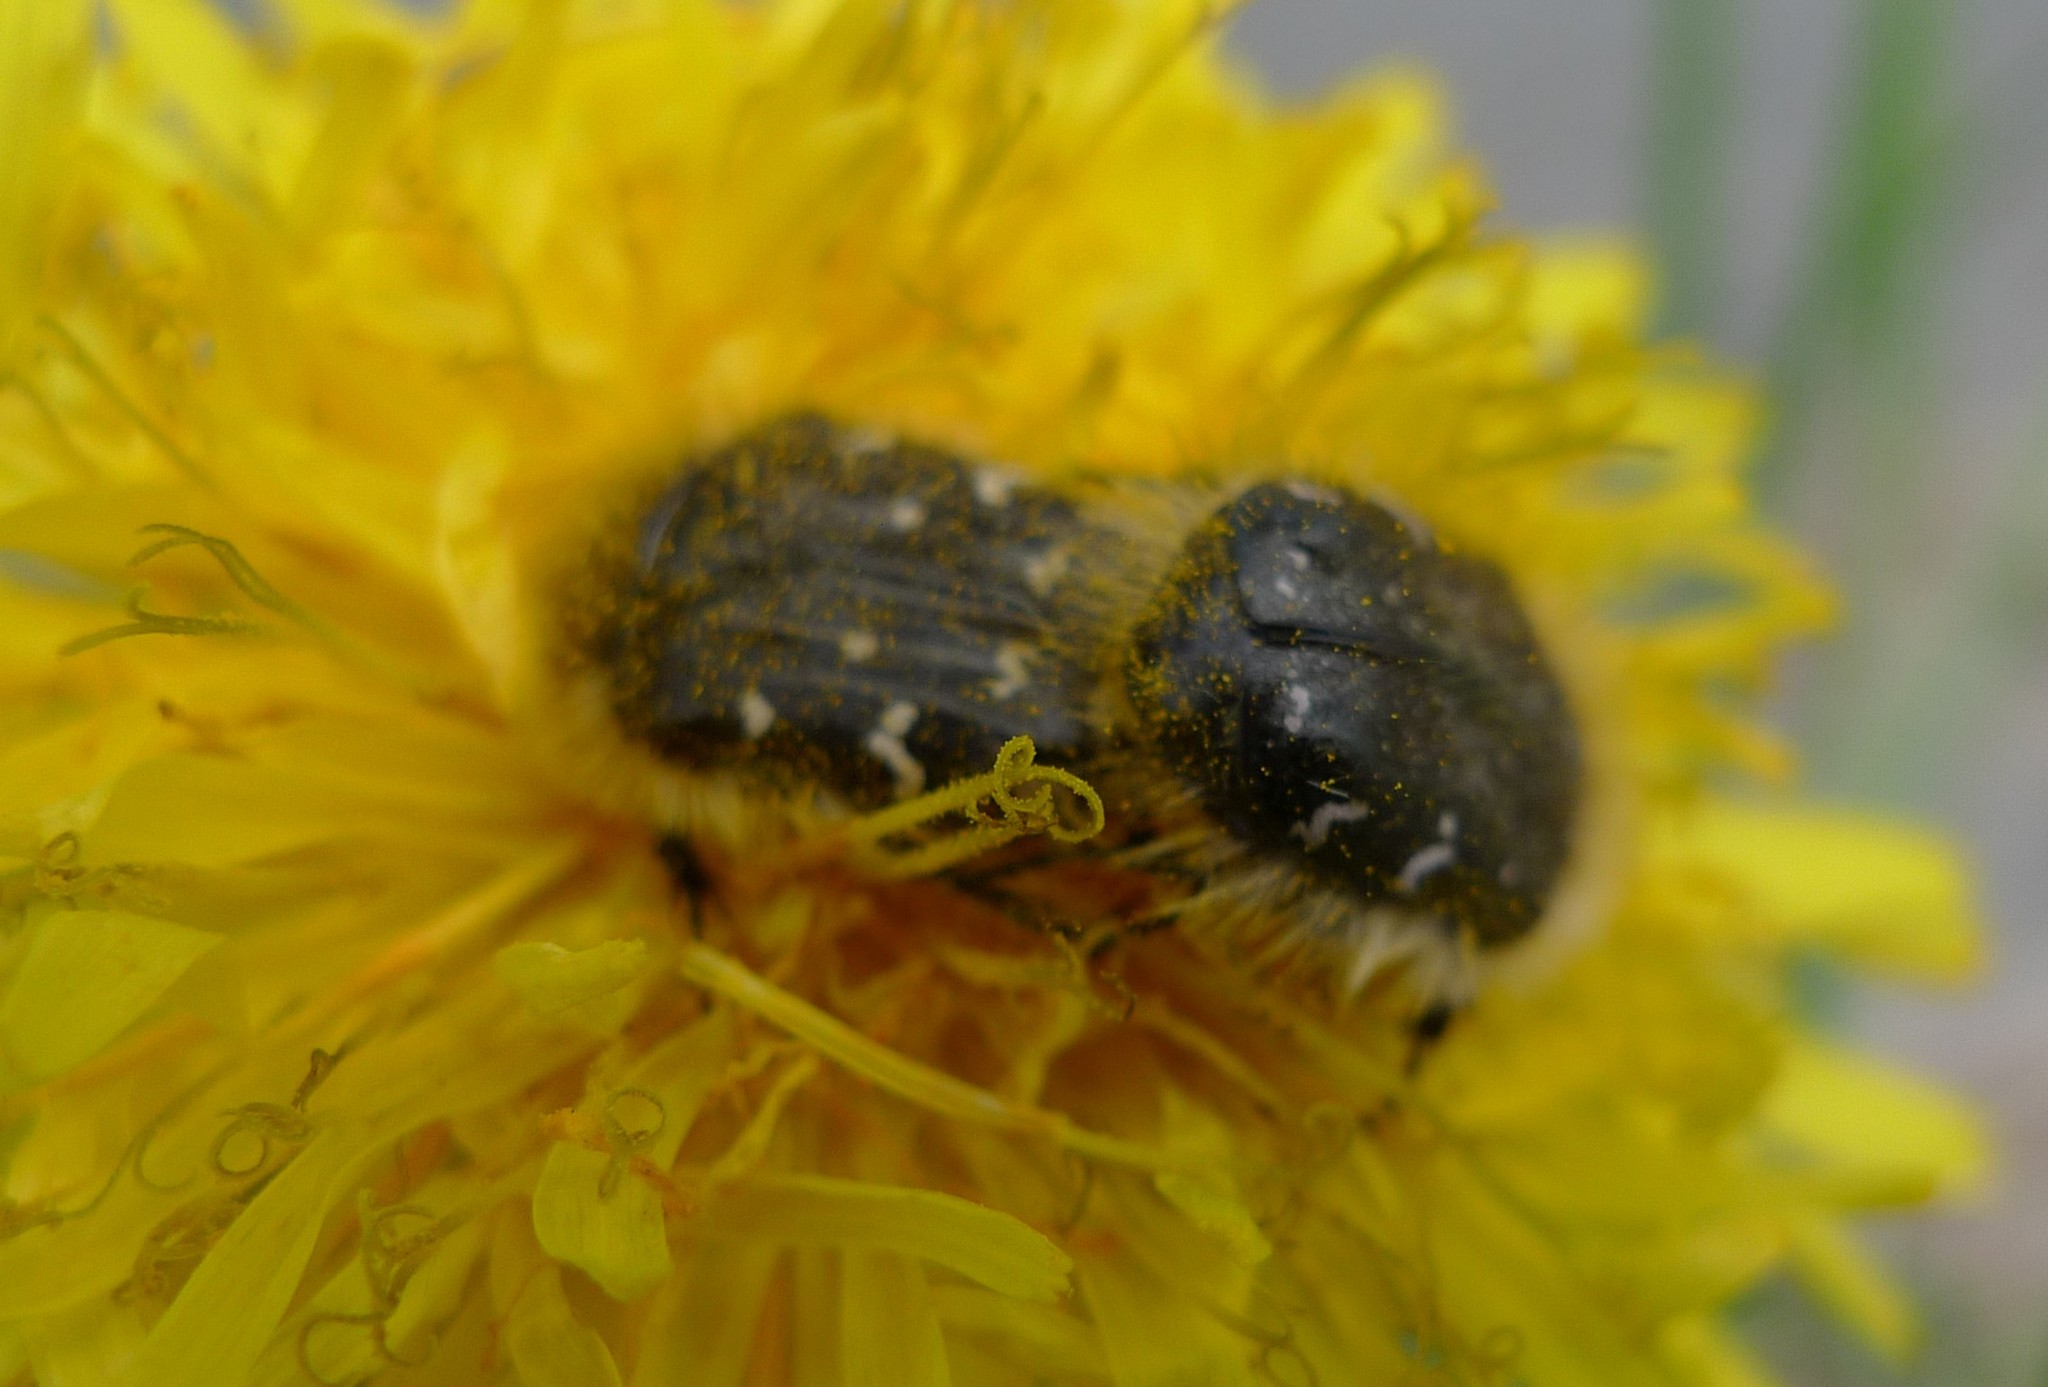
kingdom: Animalia
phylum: Arthropoda
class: Insecta
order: Coleoptera
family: Scarabaeidae
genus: Tropinota
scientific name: Tropinota hirta
